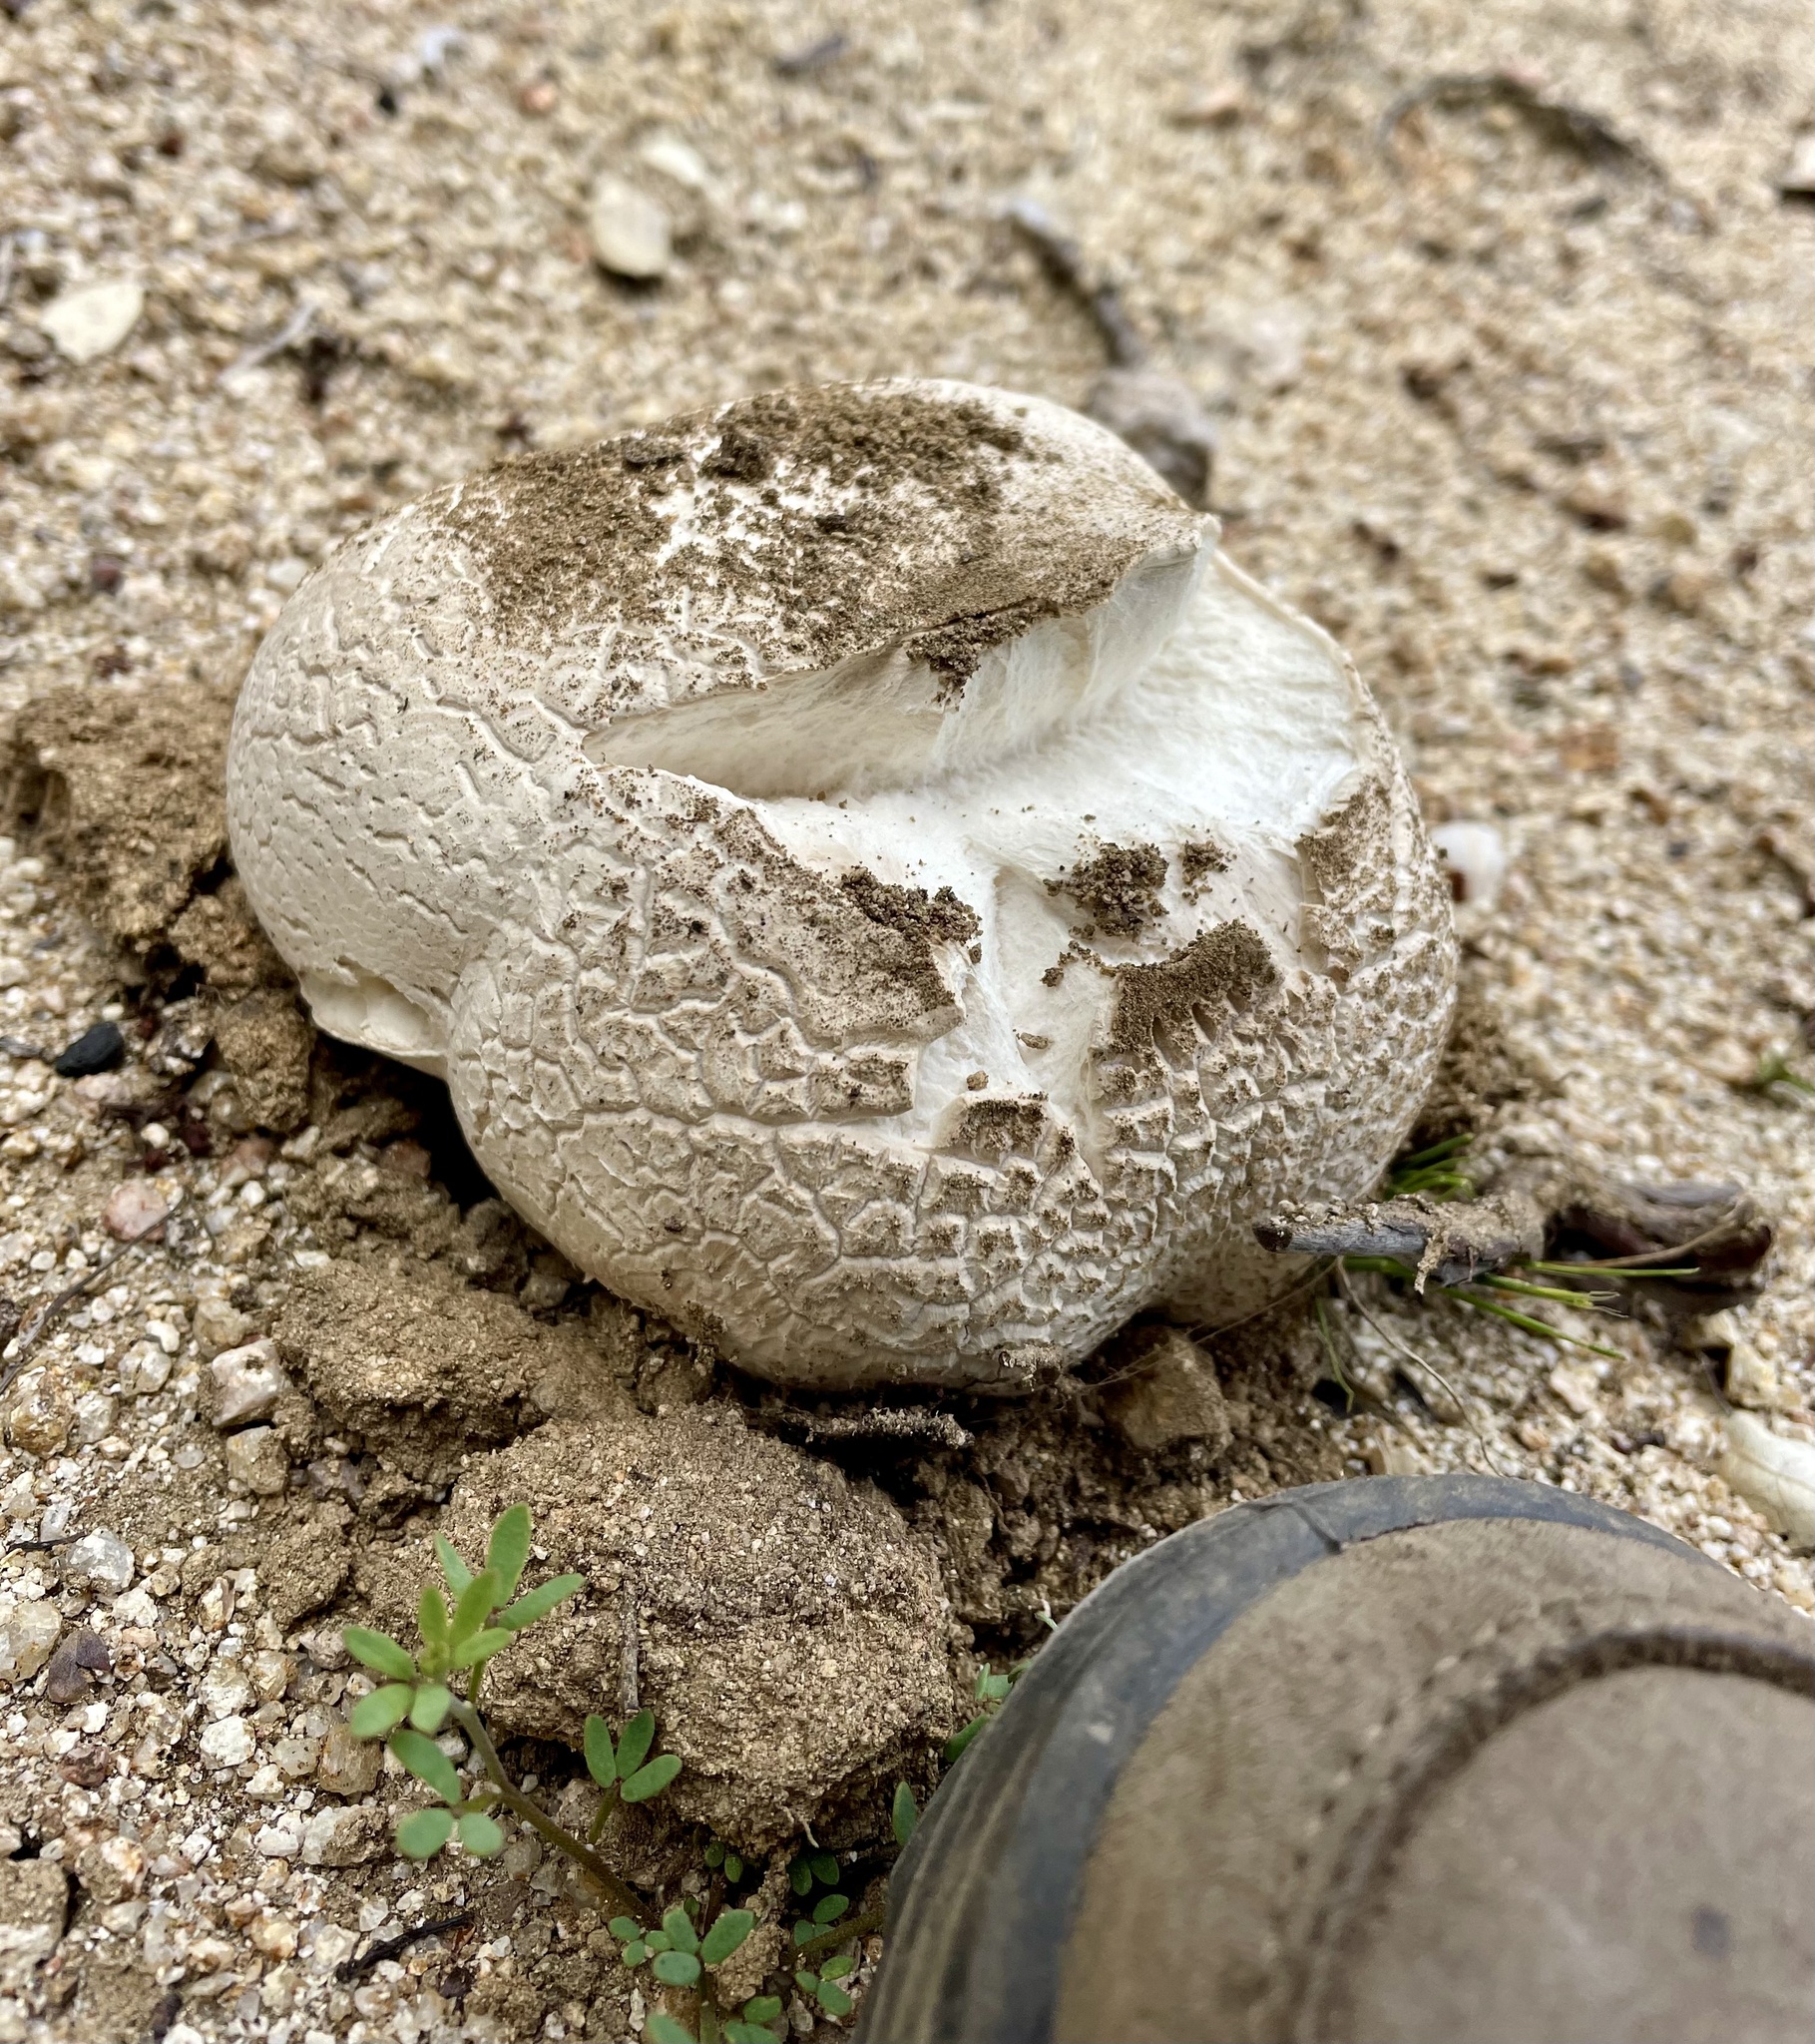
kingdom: Fungi
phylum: Basidiomycota
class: Agaricomycetes
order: Agaricales
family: Lycoperdaceae
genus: Calvatia
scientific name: Calvatia booniana
